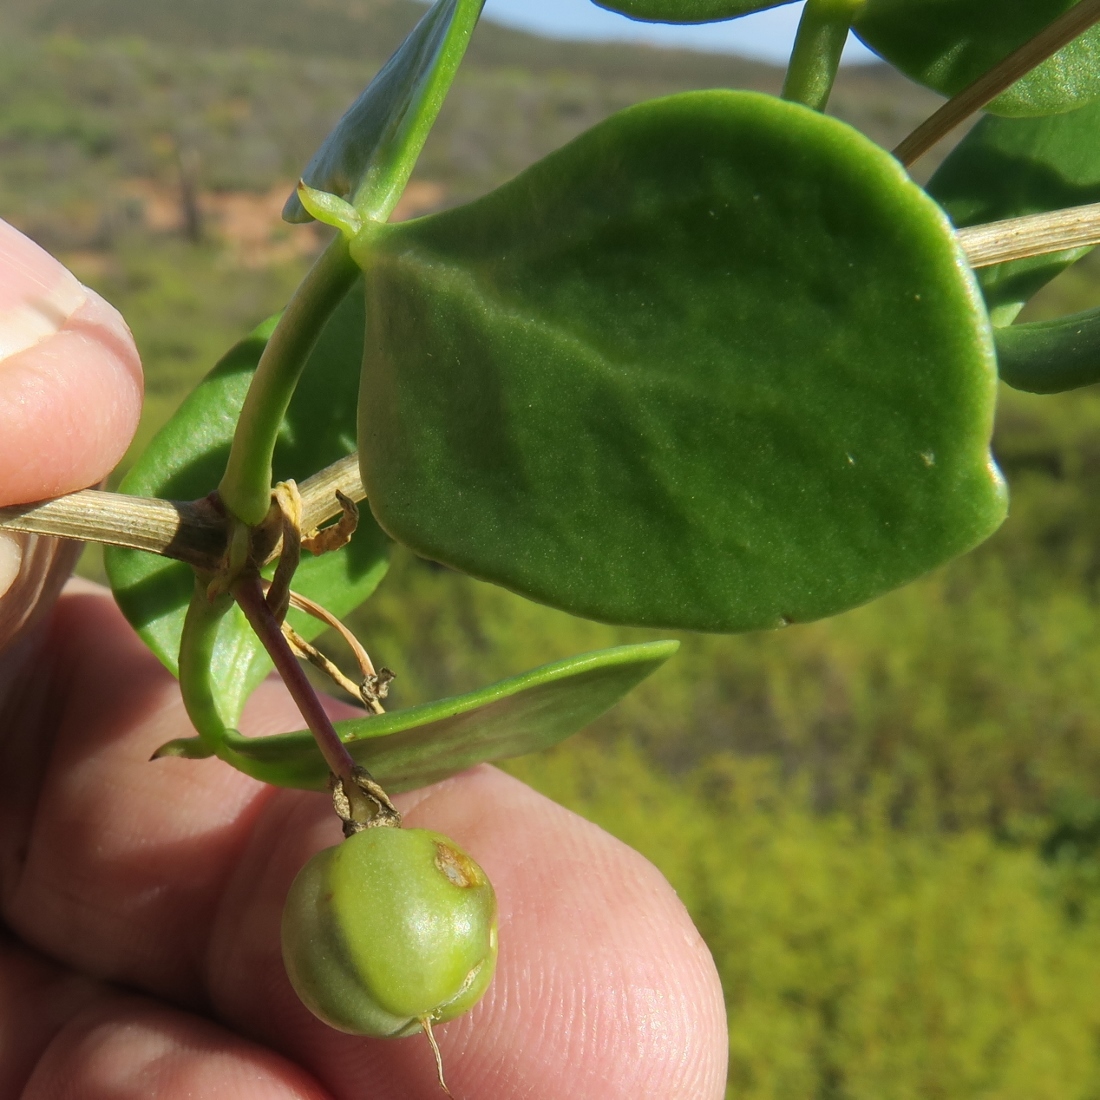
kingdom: Plantae
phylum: Tracheophyta
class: Magnoliopsida
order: Zygophyllales
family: Zygophyllaceae
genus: Roepera
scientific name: Roepera foetida
